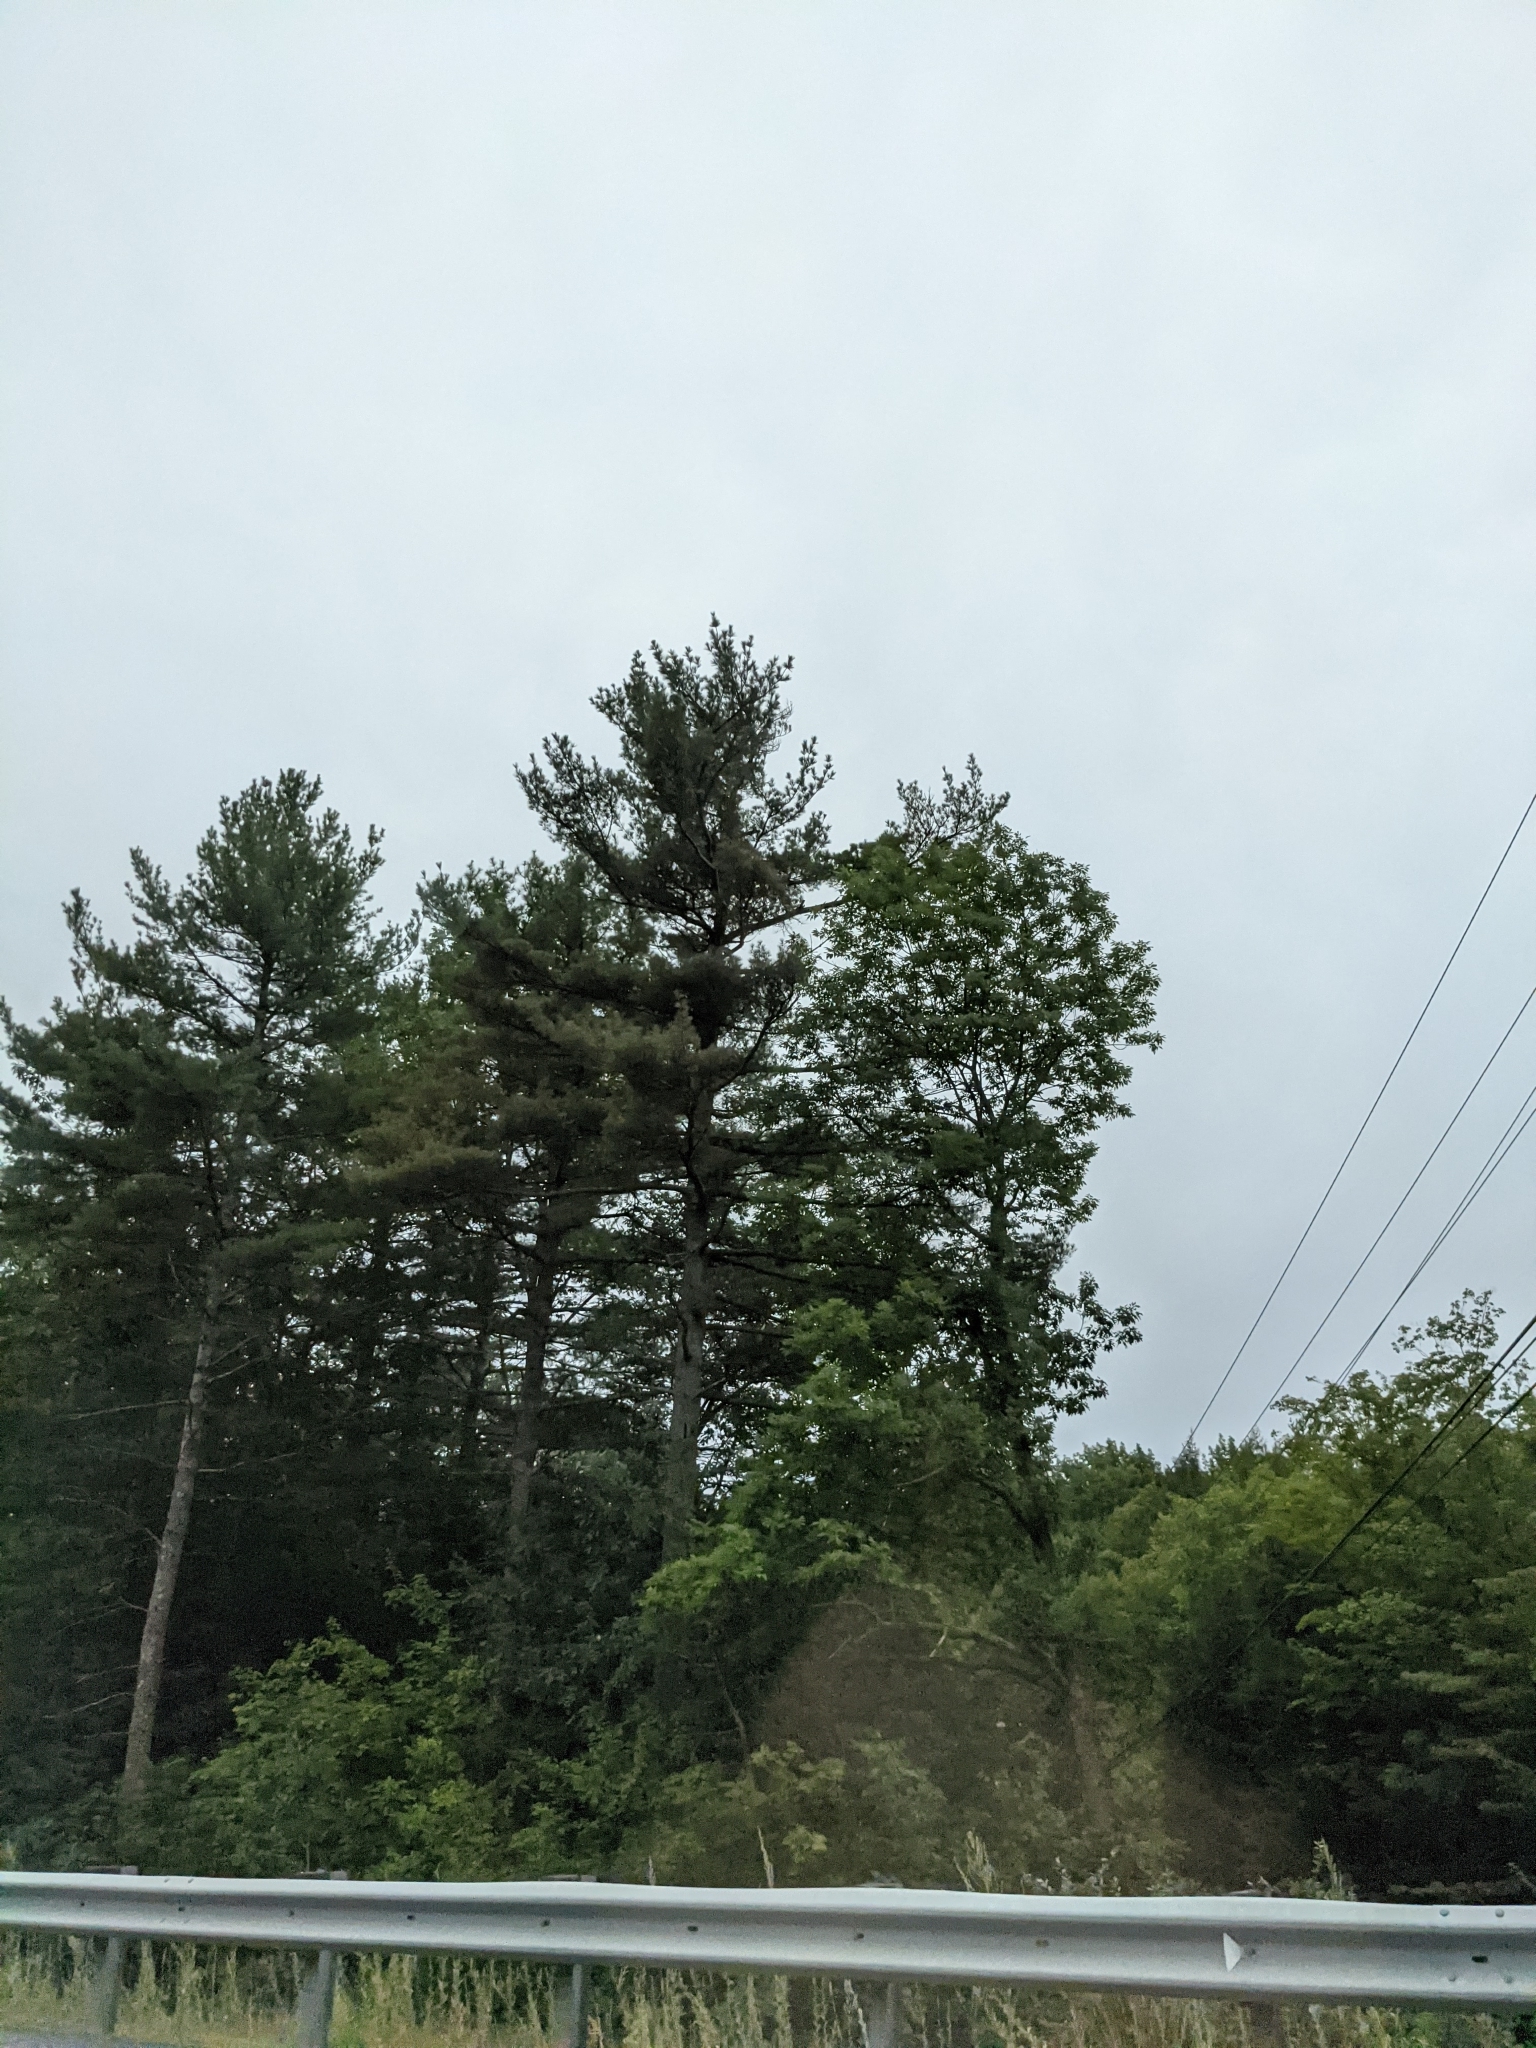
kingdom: Plantae
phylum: Tracheophyta
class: Pinopsida
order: Pinales
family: Pinaceae
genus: Pinus
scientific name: Pinus strobus
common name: Weymouth pine
